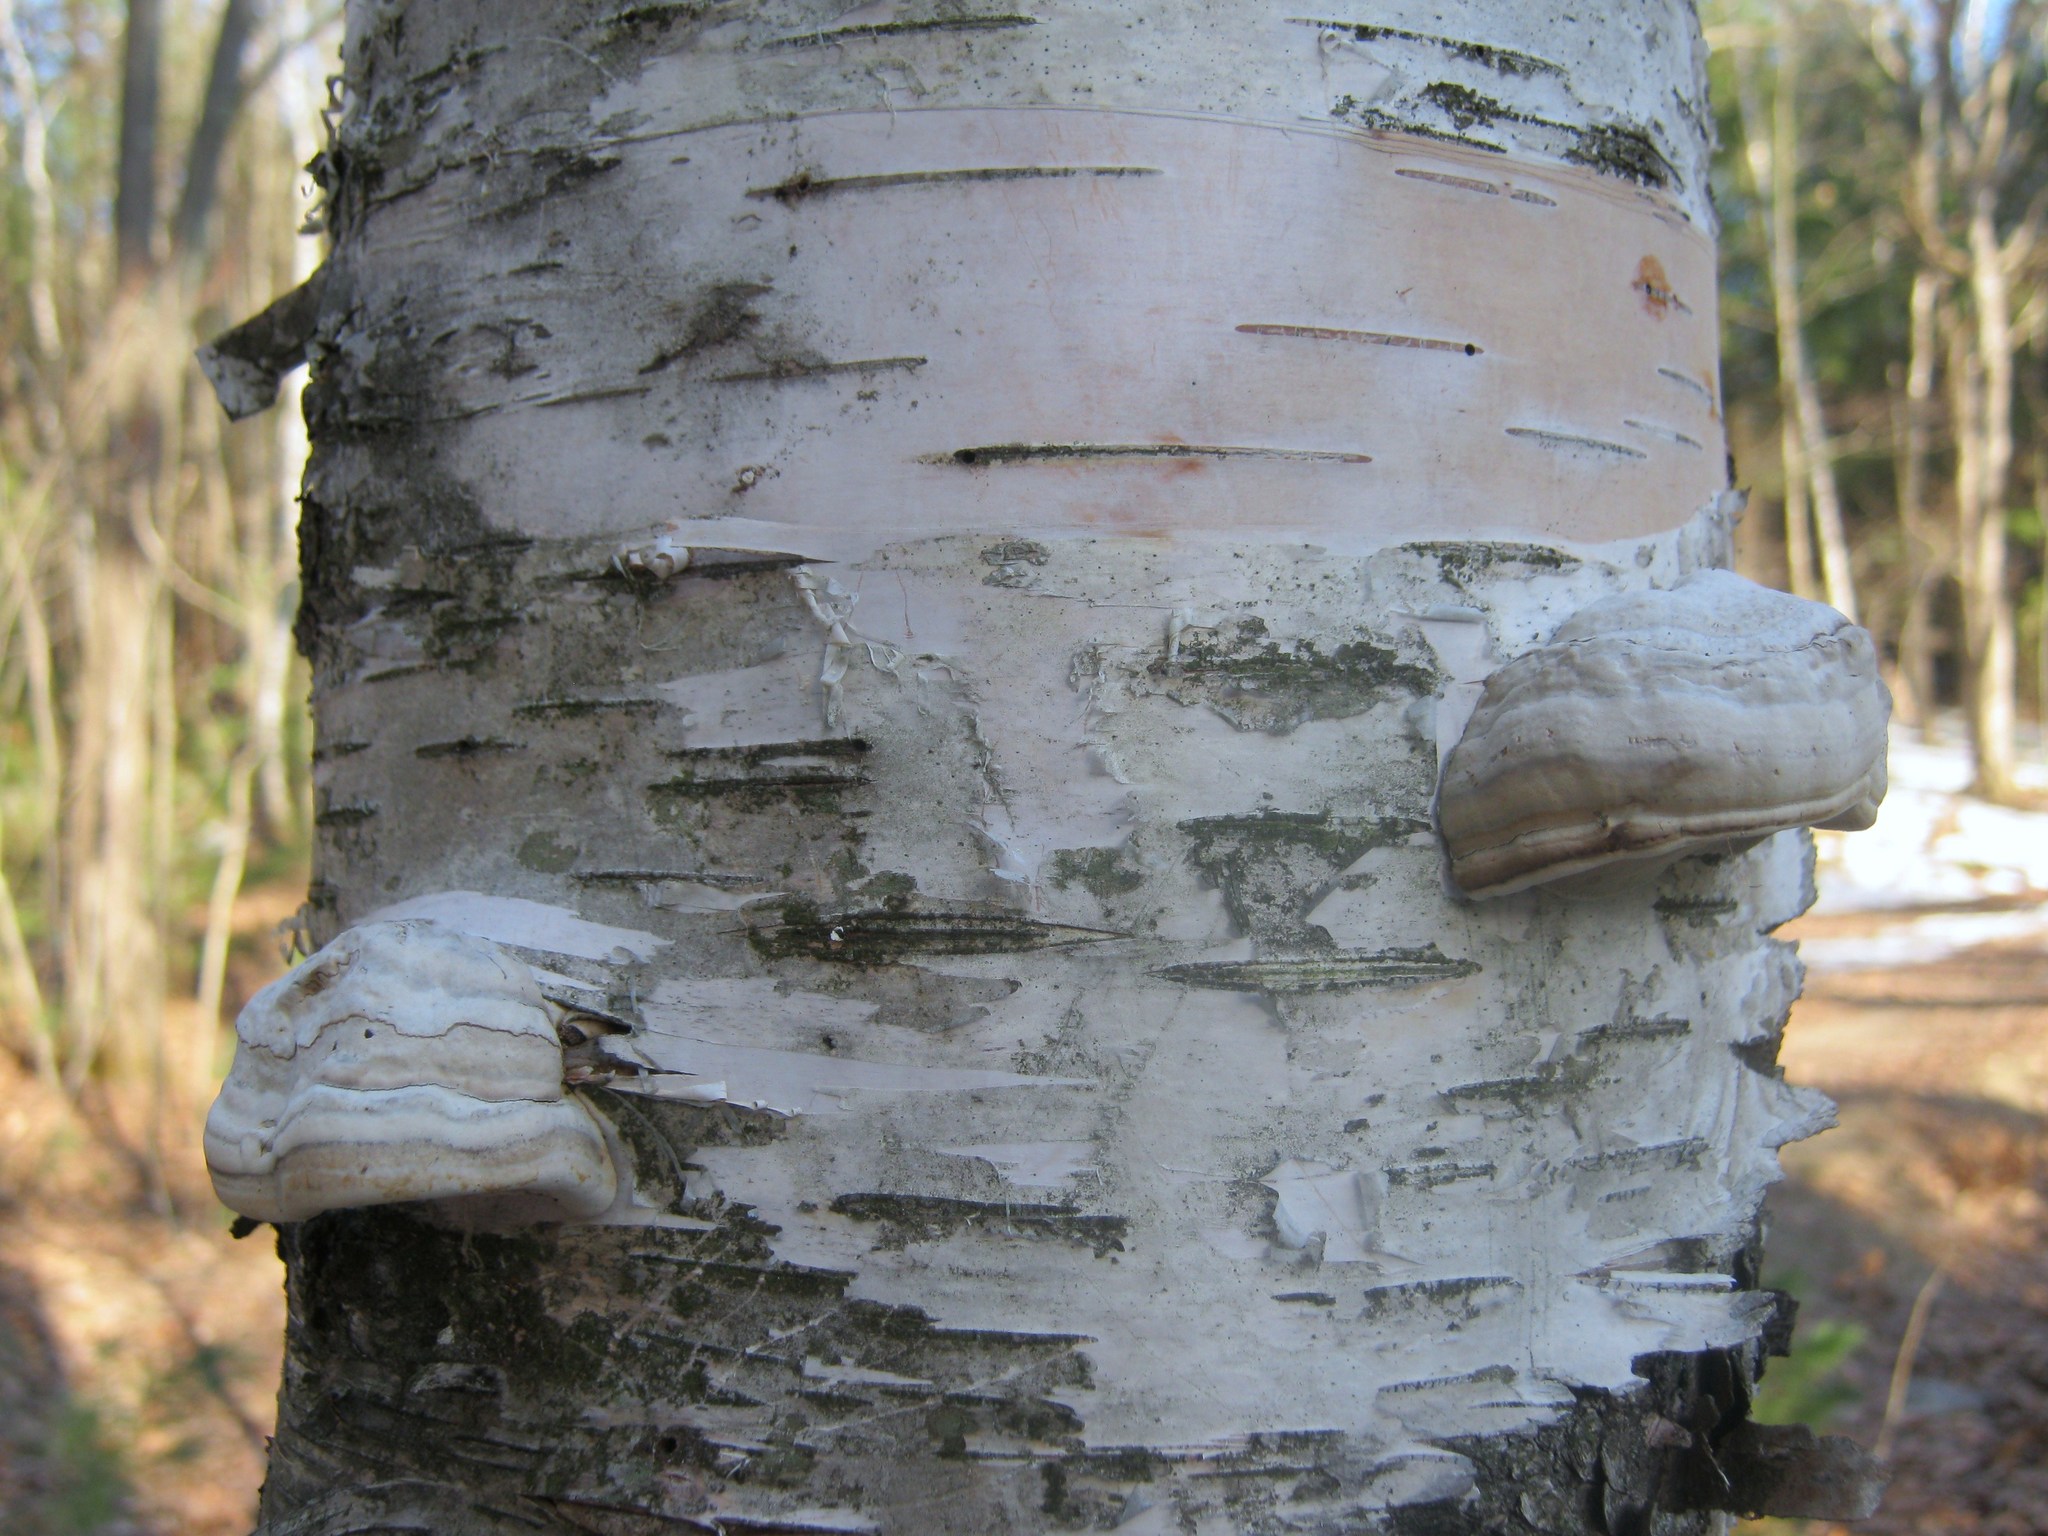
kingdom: Fungi
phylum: Basidiomycota
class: Agaricomycetes
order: Polyporales
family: Polyporaceae
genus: Fomes
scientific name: Fomes fomentarius
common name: Hoof fungus
